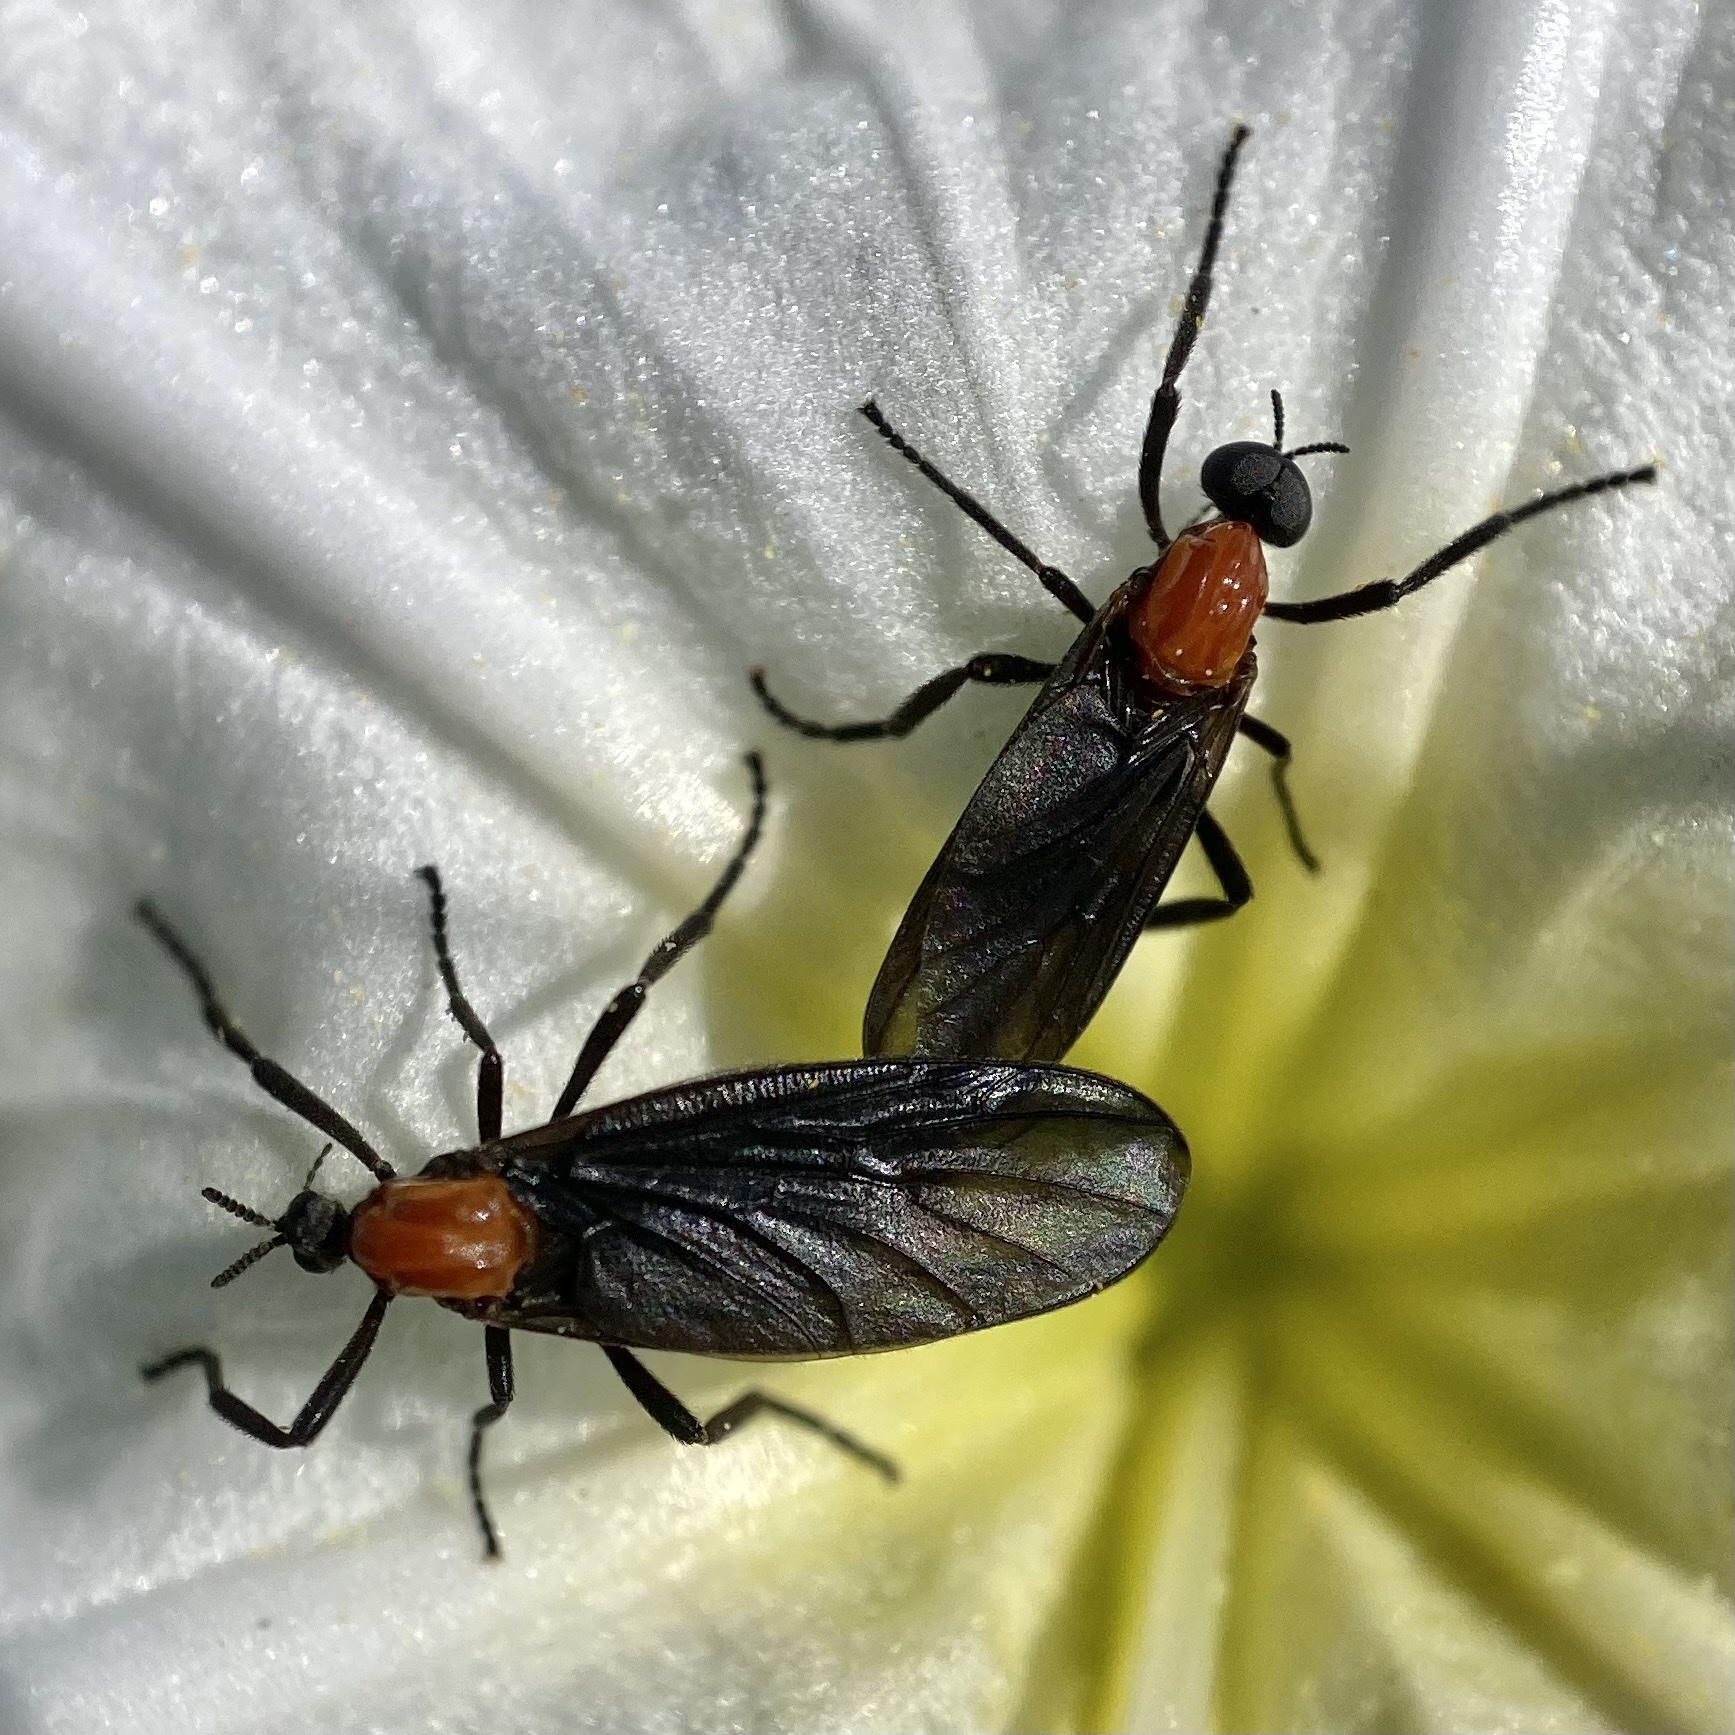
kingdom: Animalia
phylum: Arthropoda
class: Insecta
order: Diptera
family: Bibionidae
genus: Plecia
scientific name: Plecia nearctica
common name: March fly
